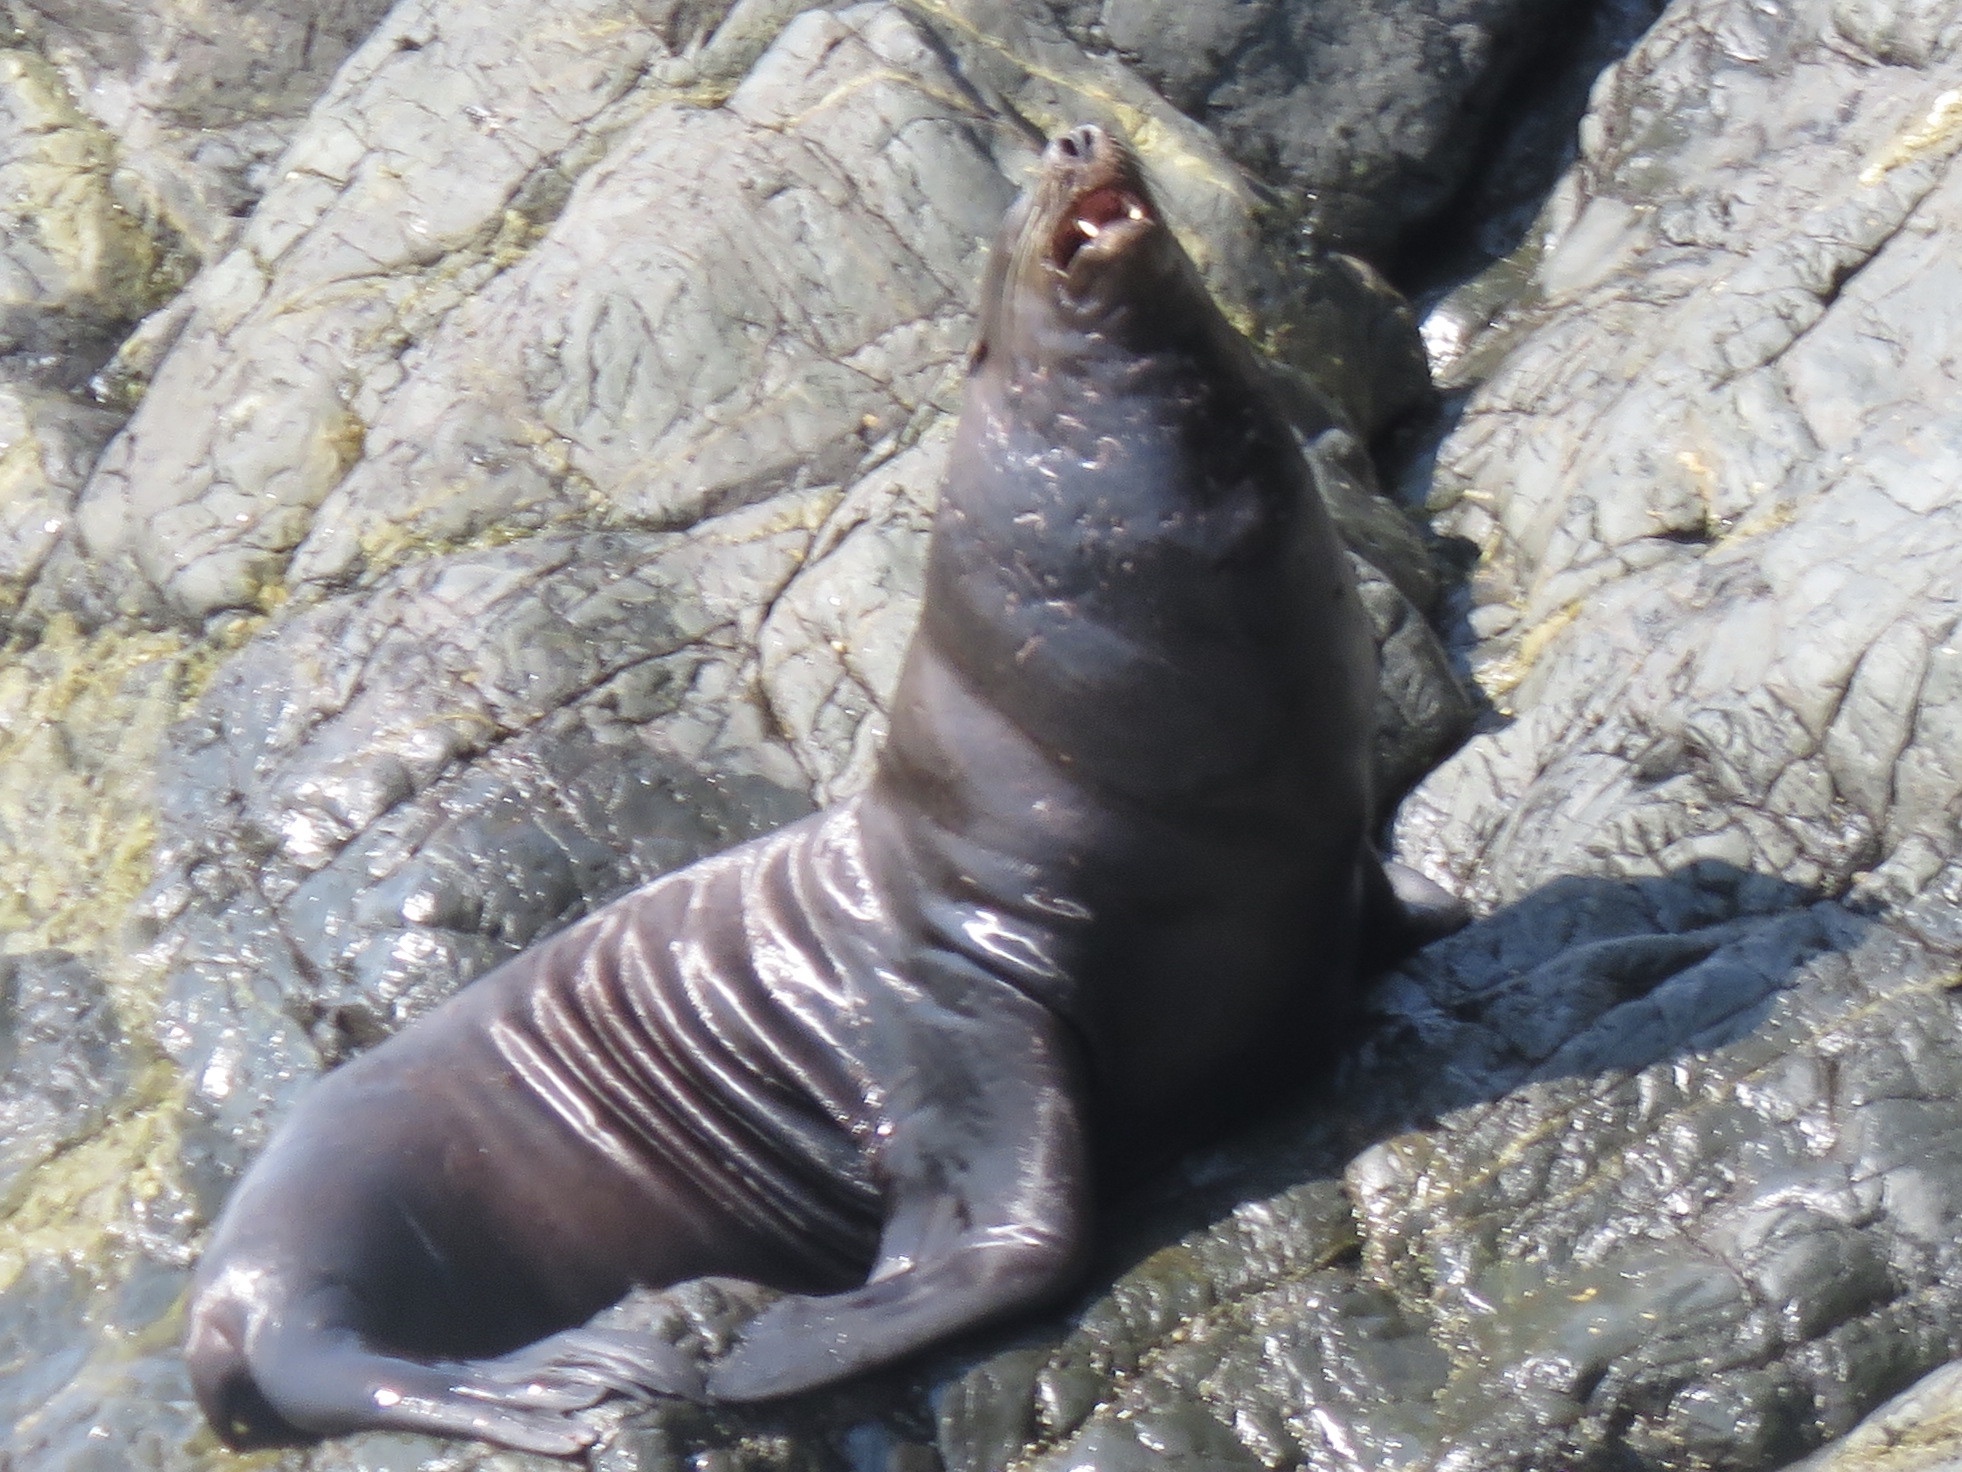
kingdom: Animalia
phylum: Chordata
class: Mammalia
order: Carnivora
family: Otariidae
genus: Zalophus
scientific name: Zalophus californianus
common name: California sea lion
